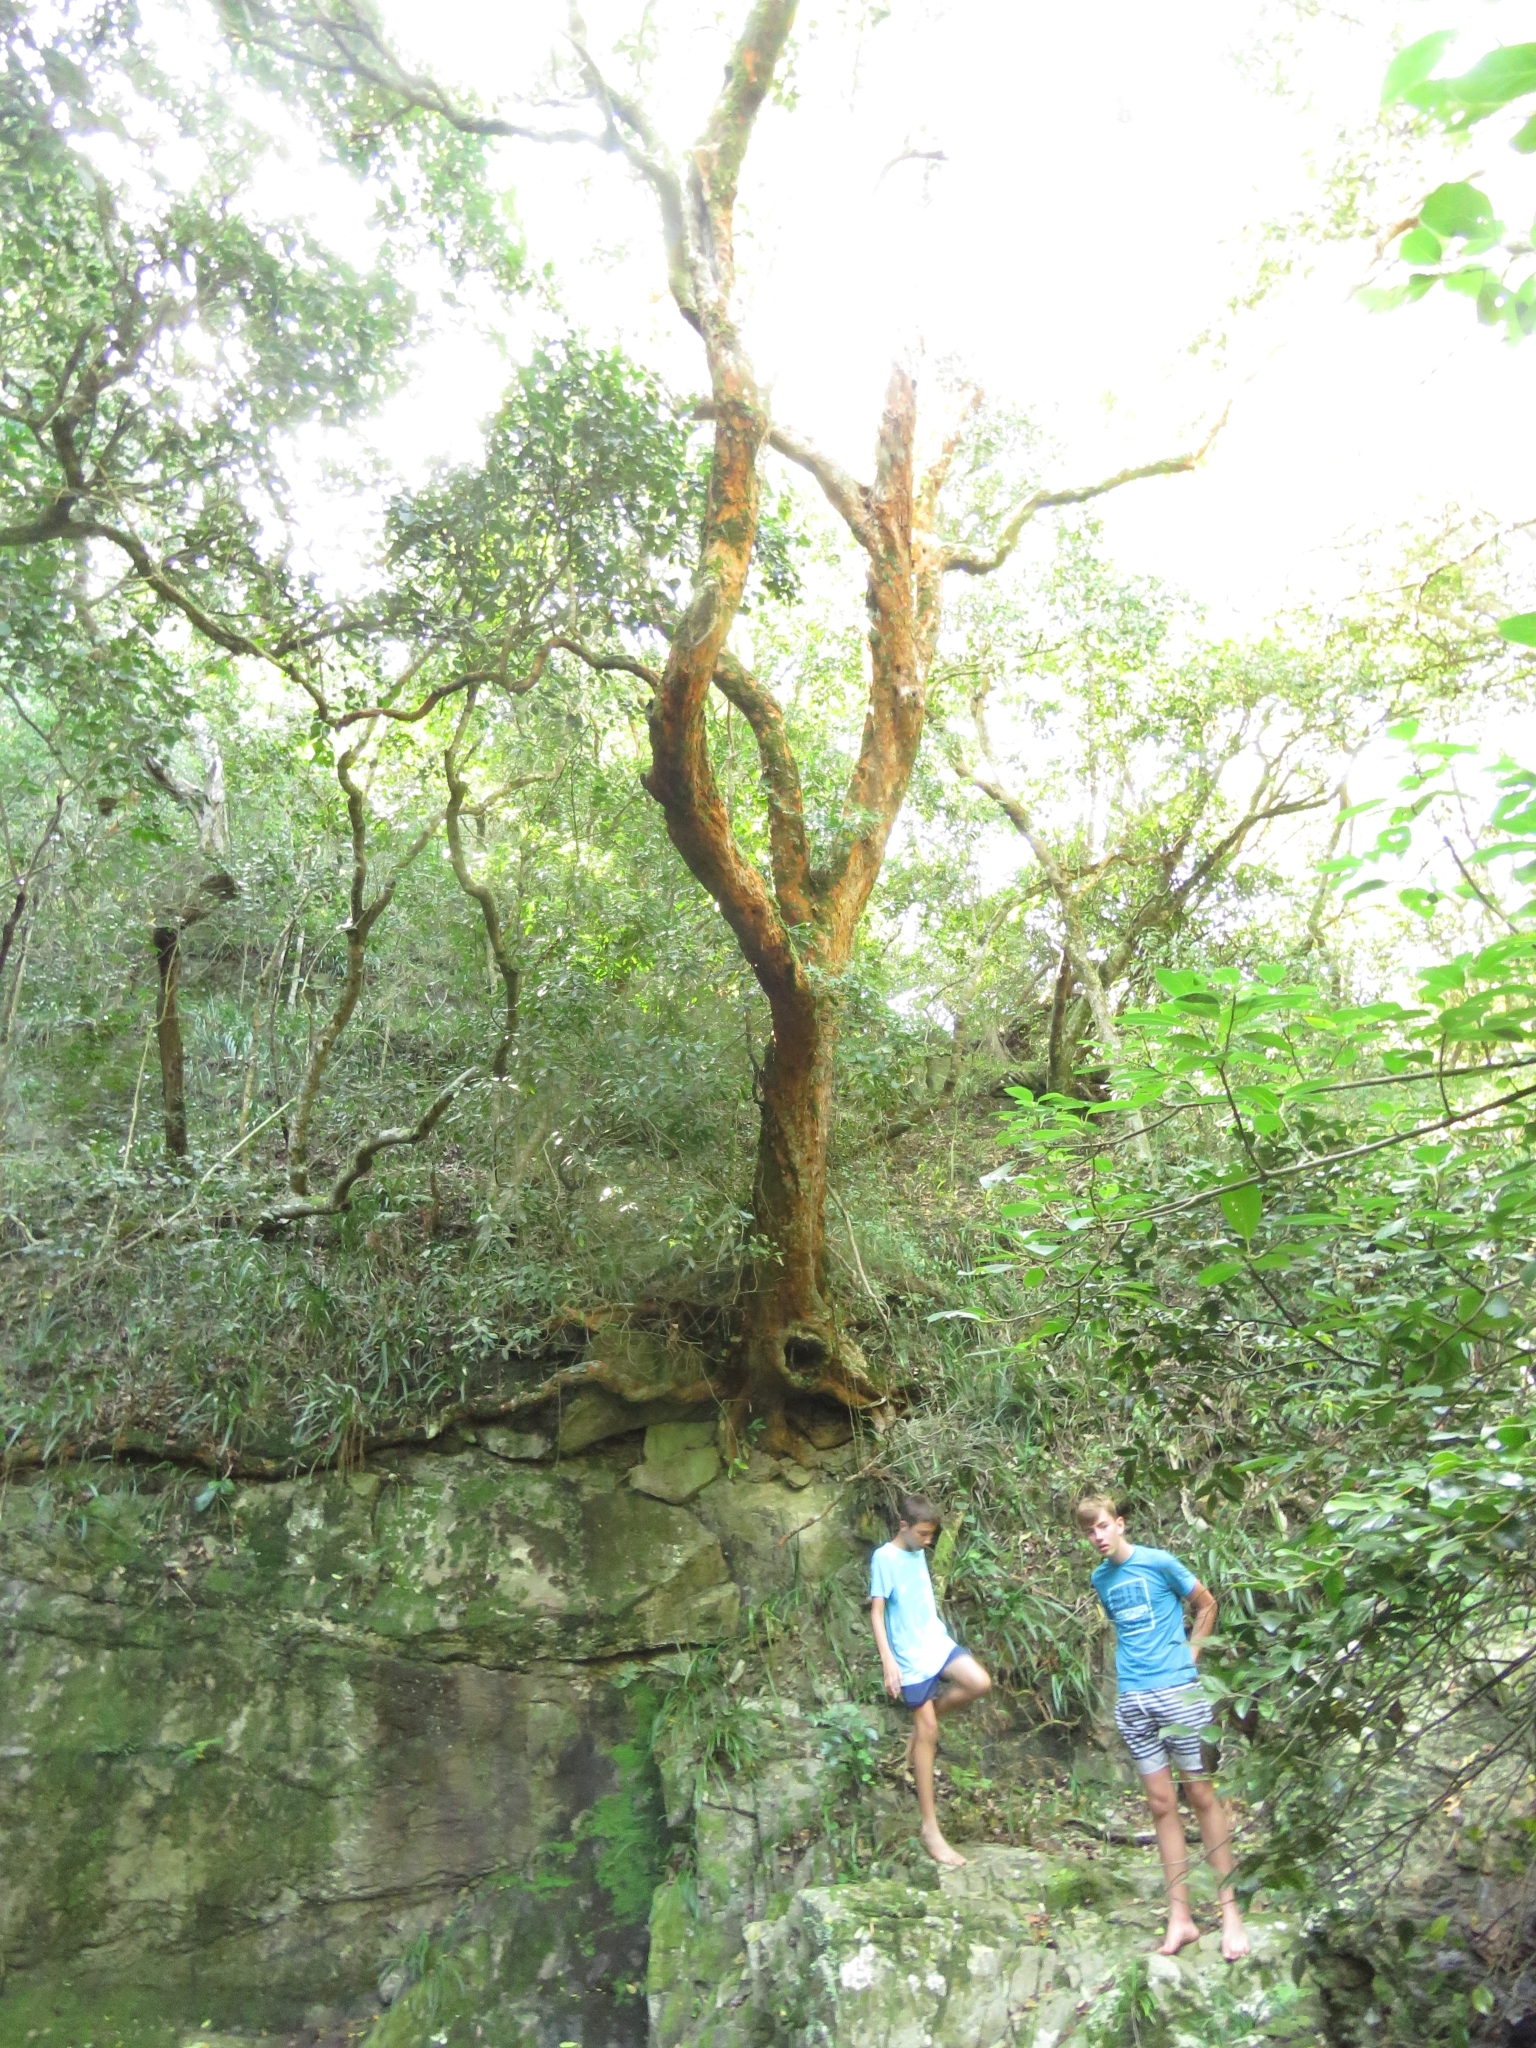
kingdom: Plantae
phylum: Tracheophyta
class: Magnoliopsida
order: Celastrales
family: Celastraceae
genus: Cassine
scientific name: Cassine peragua
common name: Cape saffron
